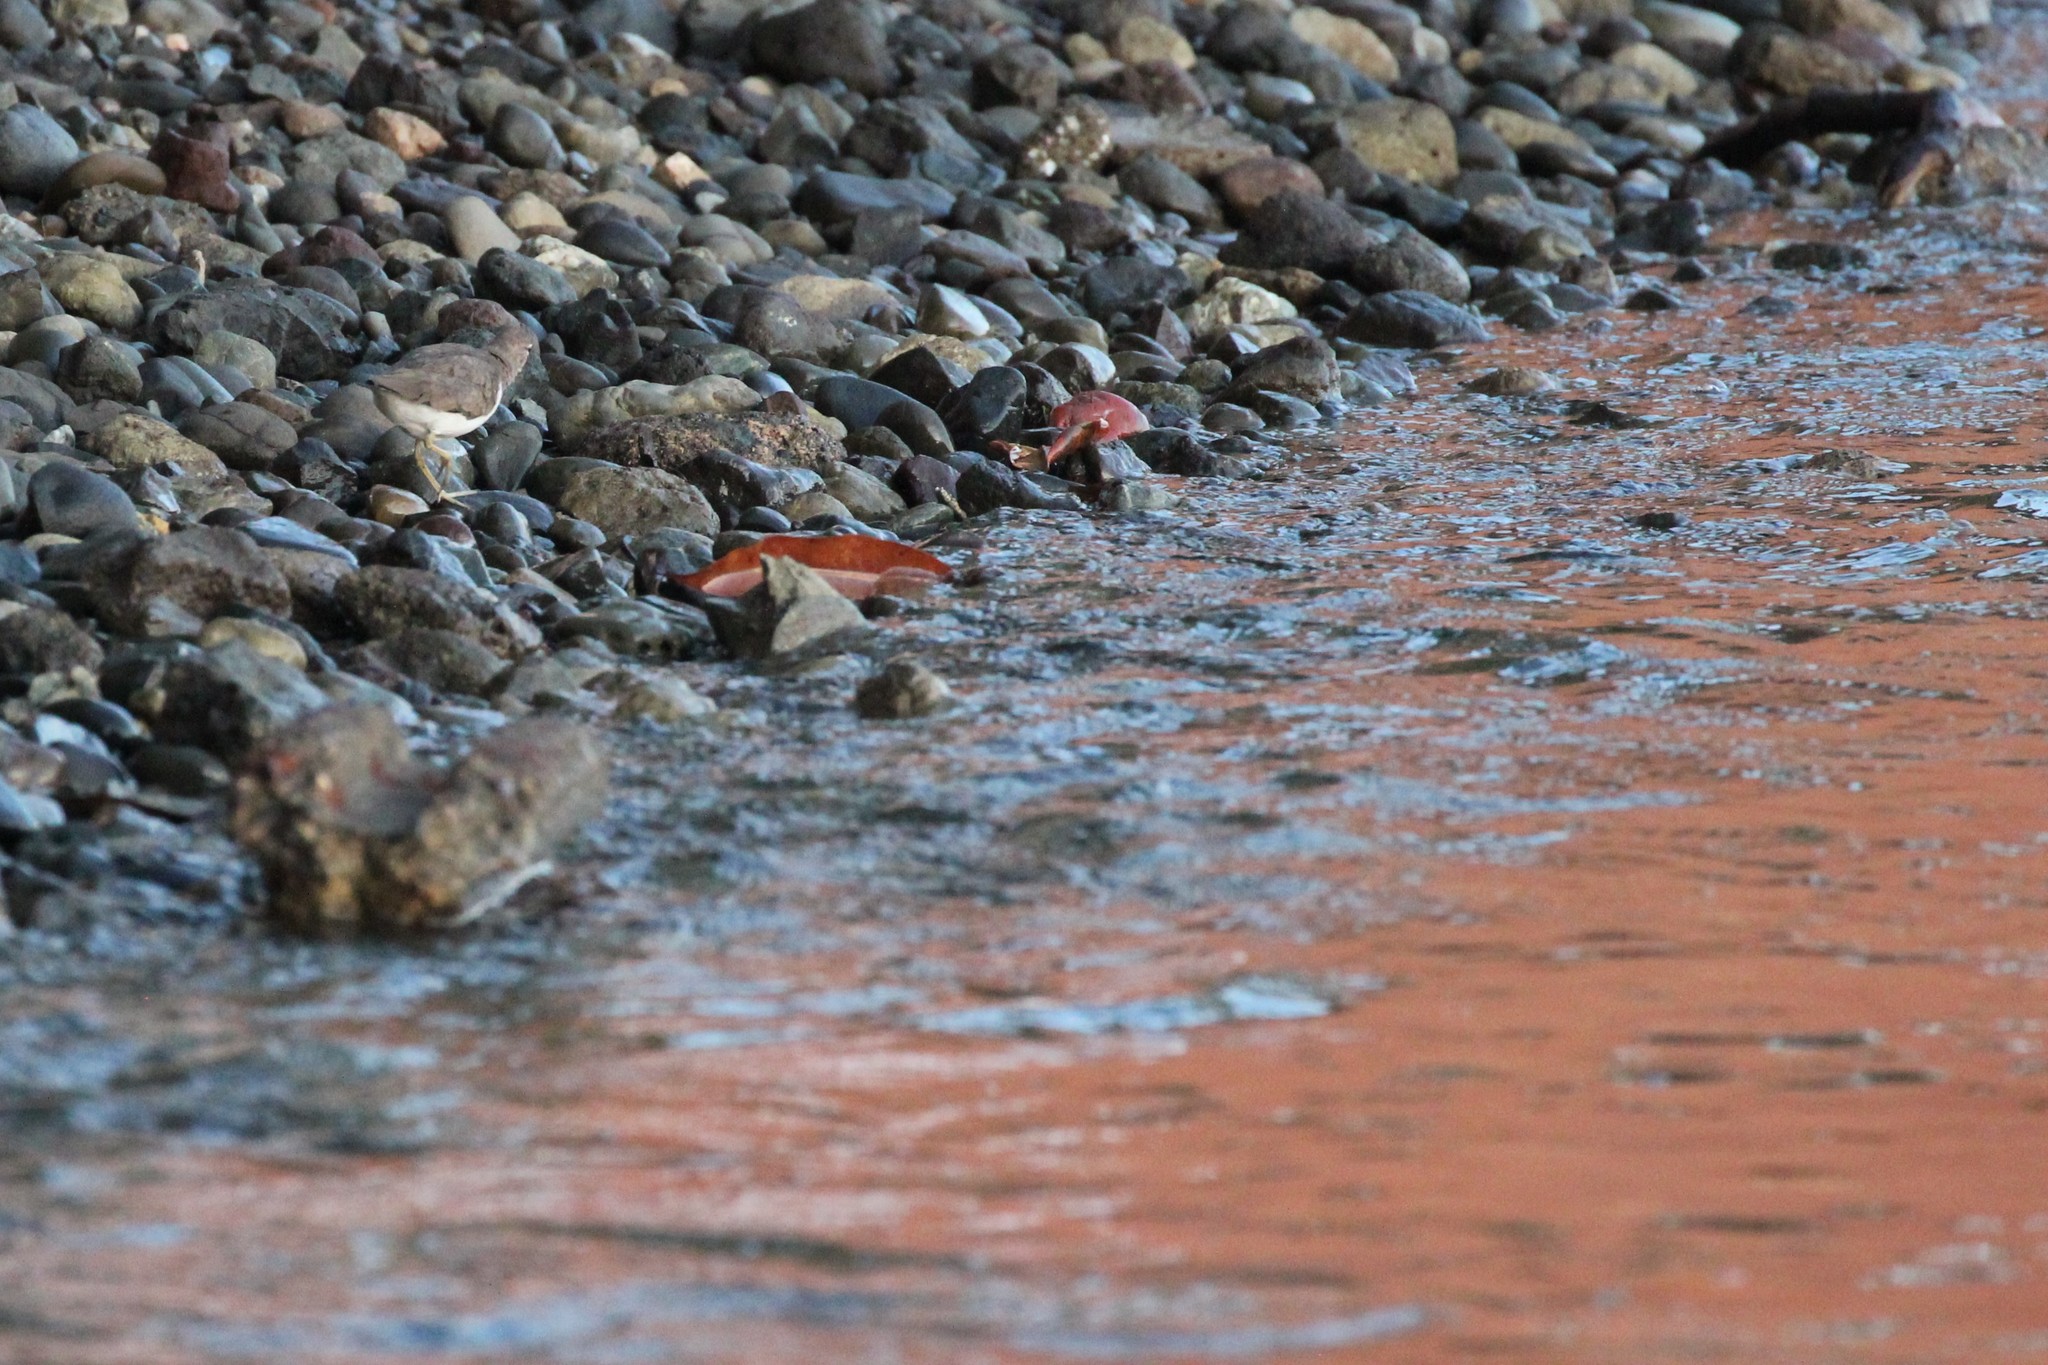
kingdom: Animalia
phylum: Chordata
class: Aves
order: Charadriiformes
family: Scolopacidae
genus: Actitis
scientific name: Actitis macularius
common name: Spotted sandpiper
